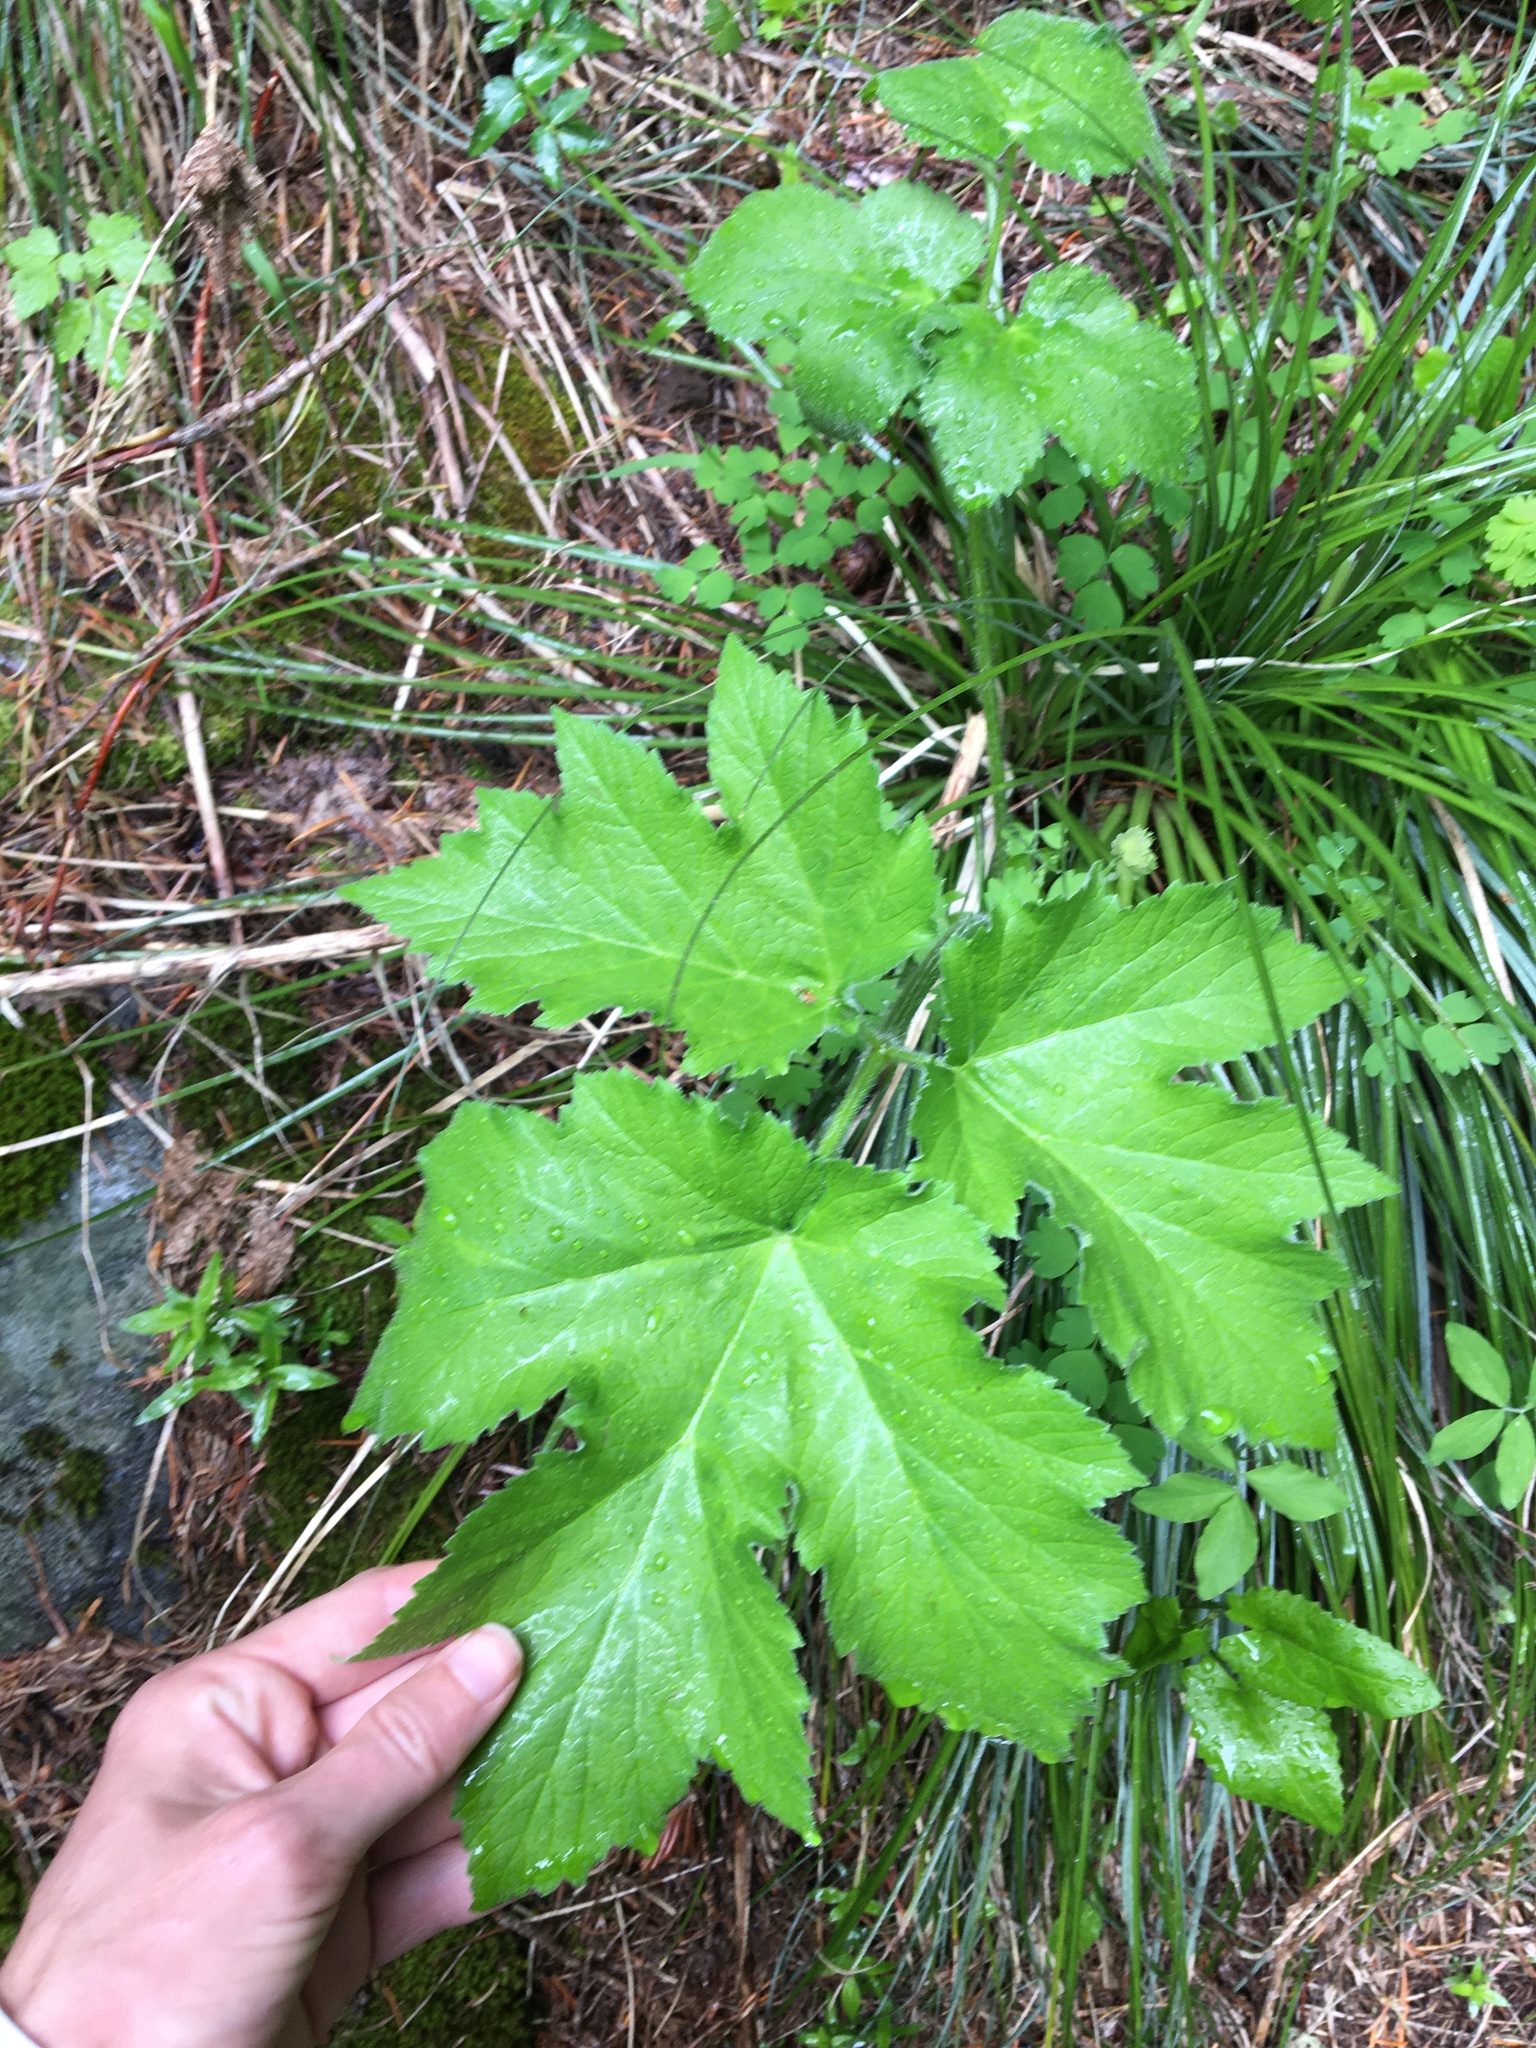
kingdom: Plantae
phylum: Tracheophyta
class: Magnoliopsida
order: Apiales
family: Apiaceae
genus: Heracleum
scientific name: Heracleum maximum
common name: American cow parsnip
